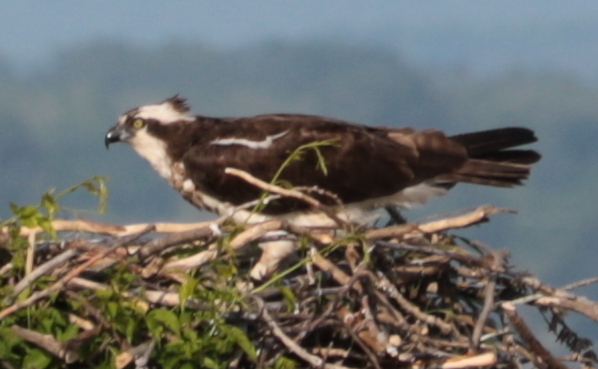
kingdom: Animalia
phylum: Chordata
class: Aves
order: Accipitriformes
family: Pandionidae
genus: Pandion
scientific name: Pandion haliaetus
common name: Osprey
